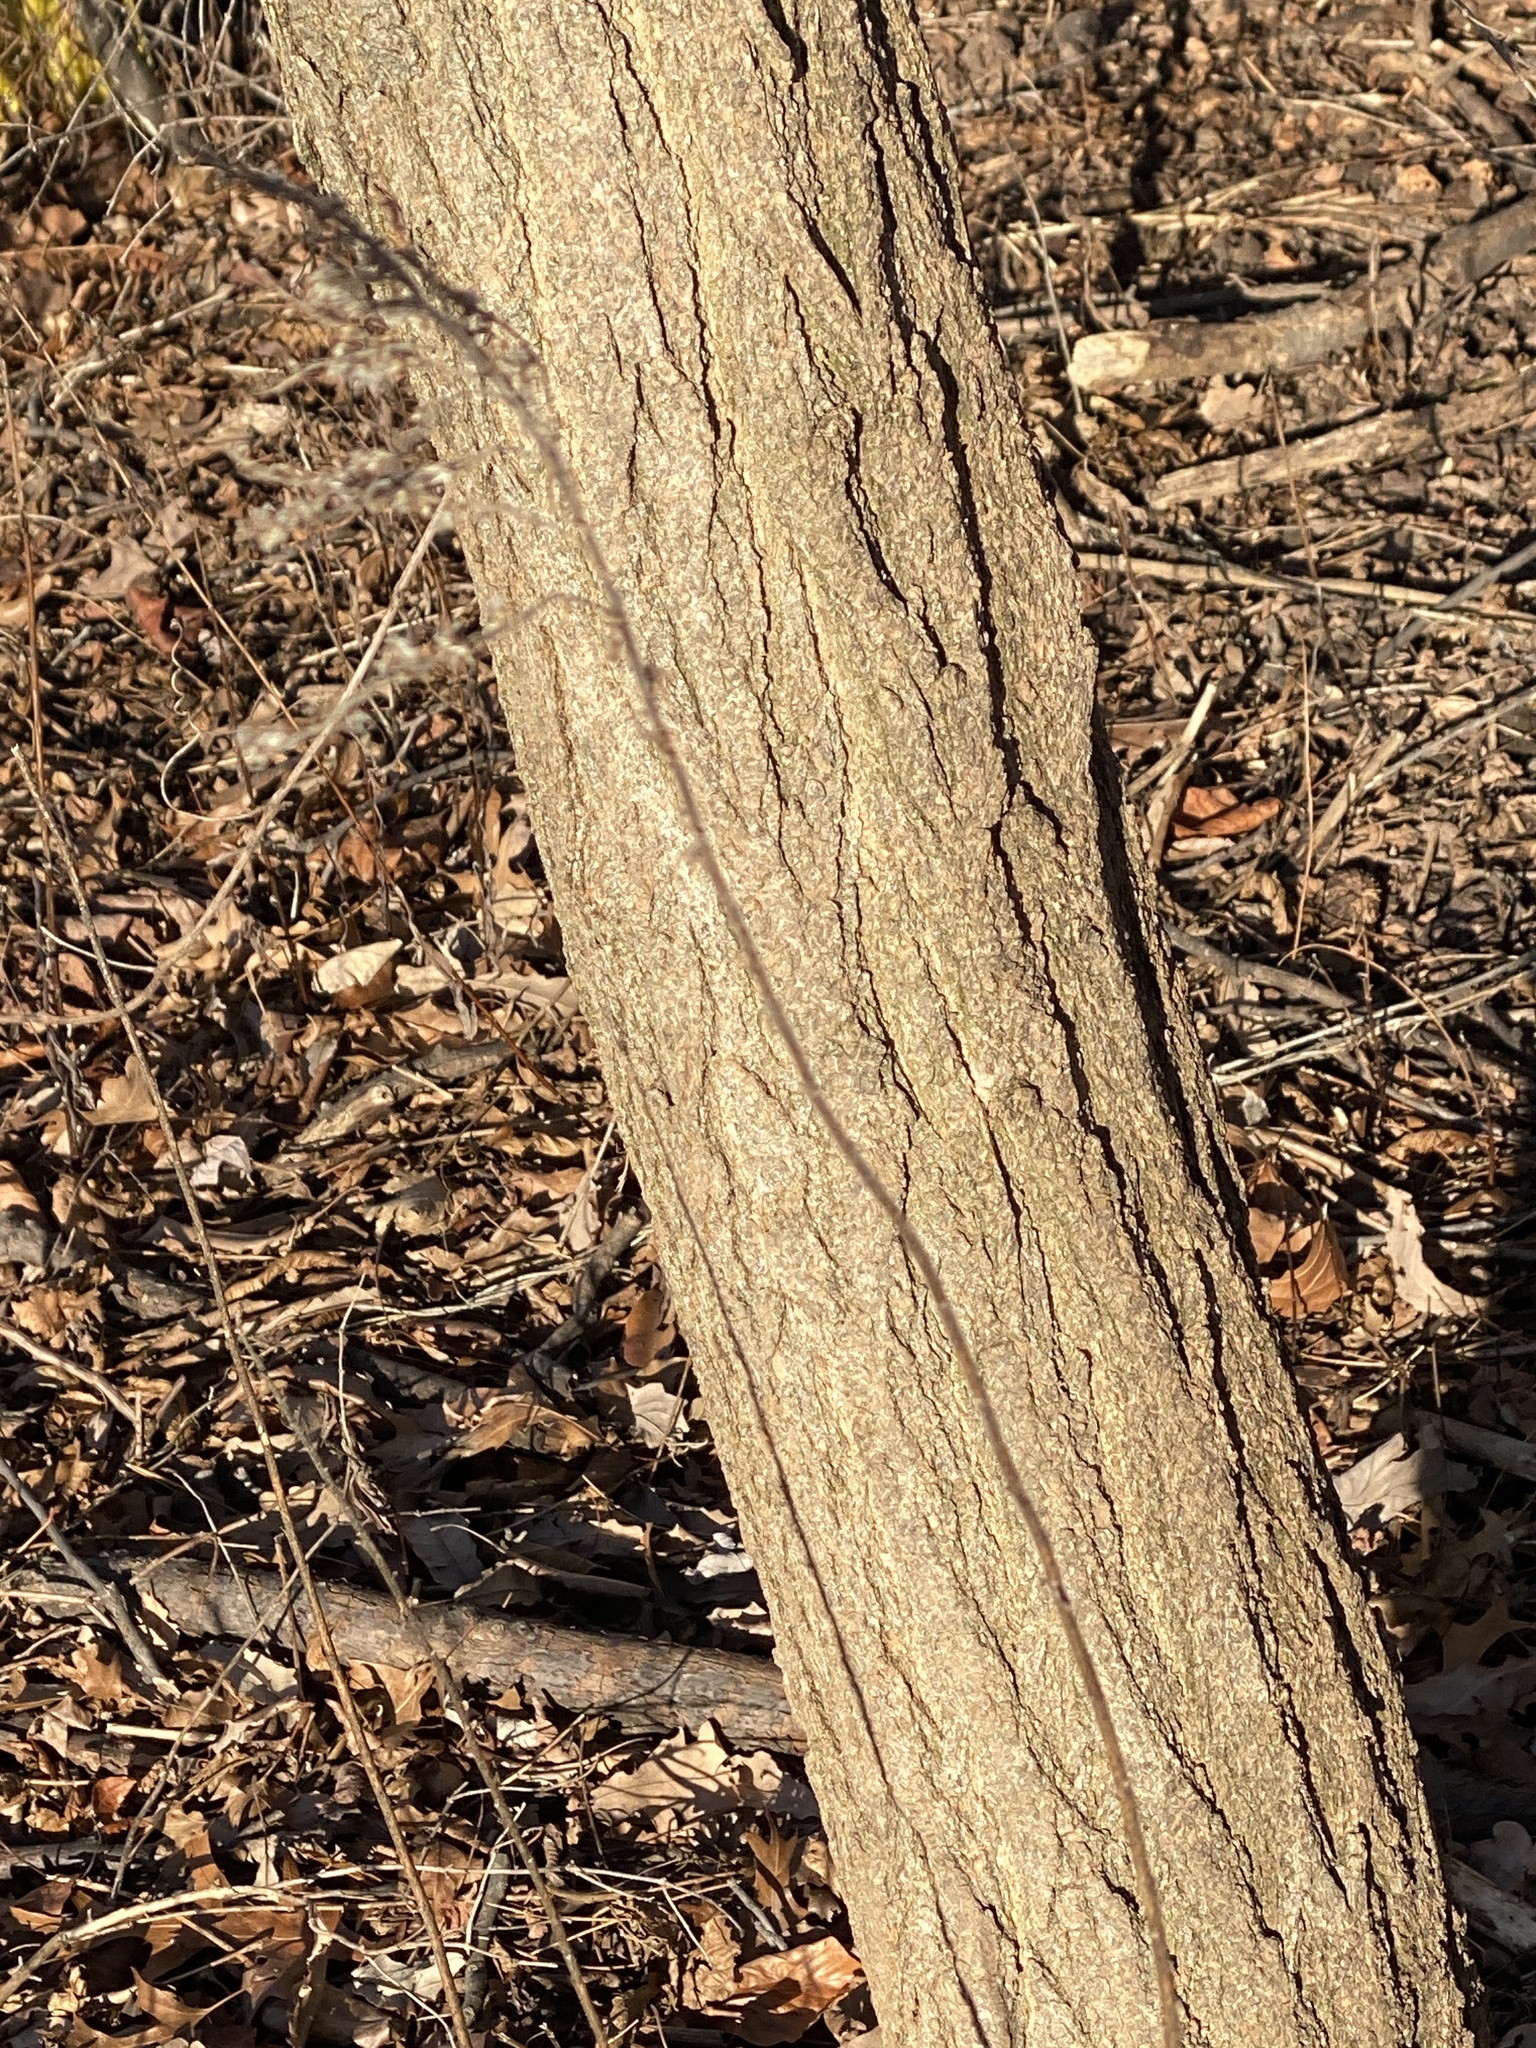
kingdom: Plantae
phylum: Tracheophyta
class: Magnoliopsida
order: Fabales
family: Fabaceae
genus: Robinia
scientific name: Robinia pseudoacacia
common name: Black locust
